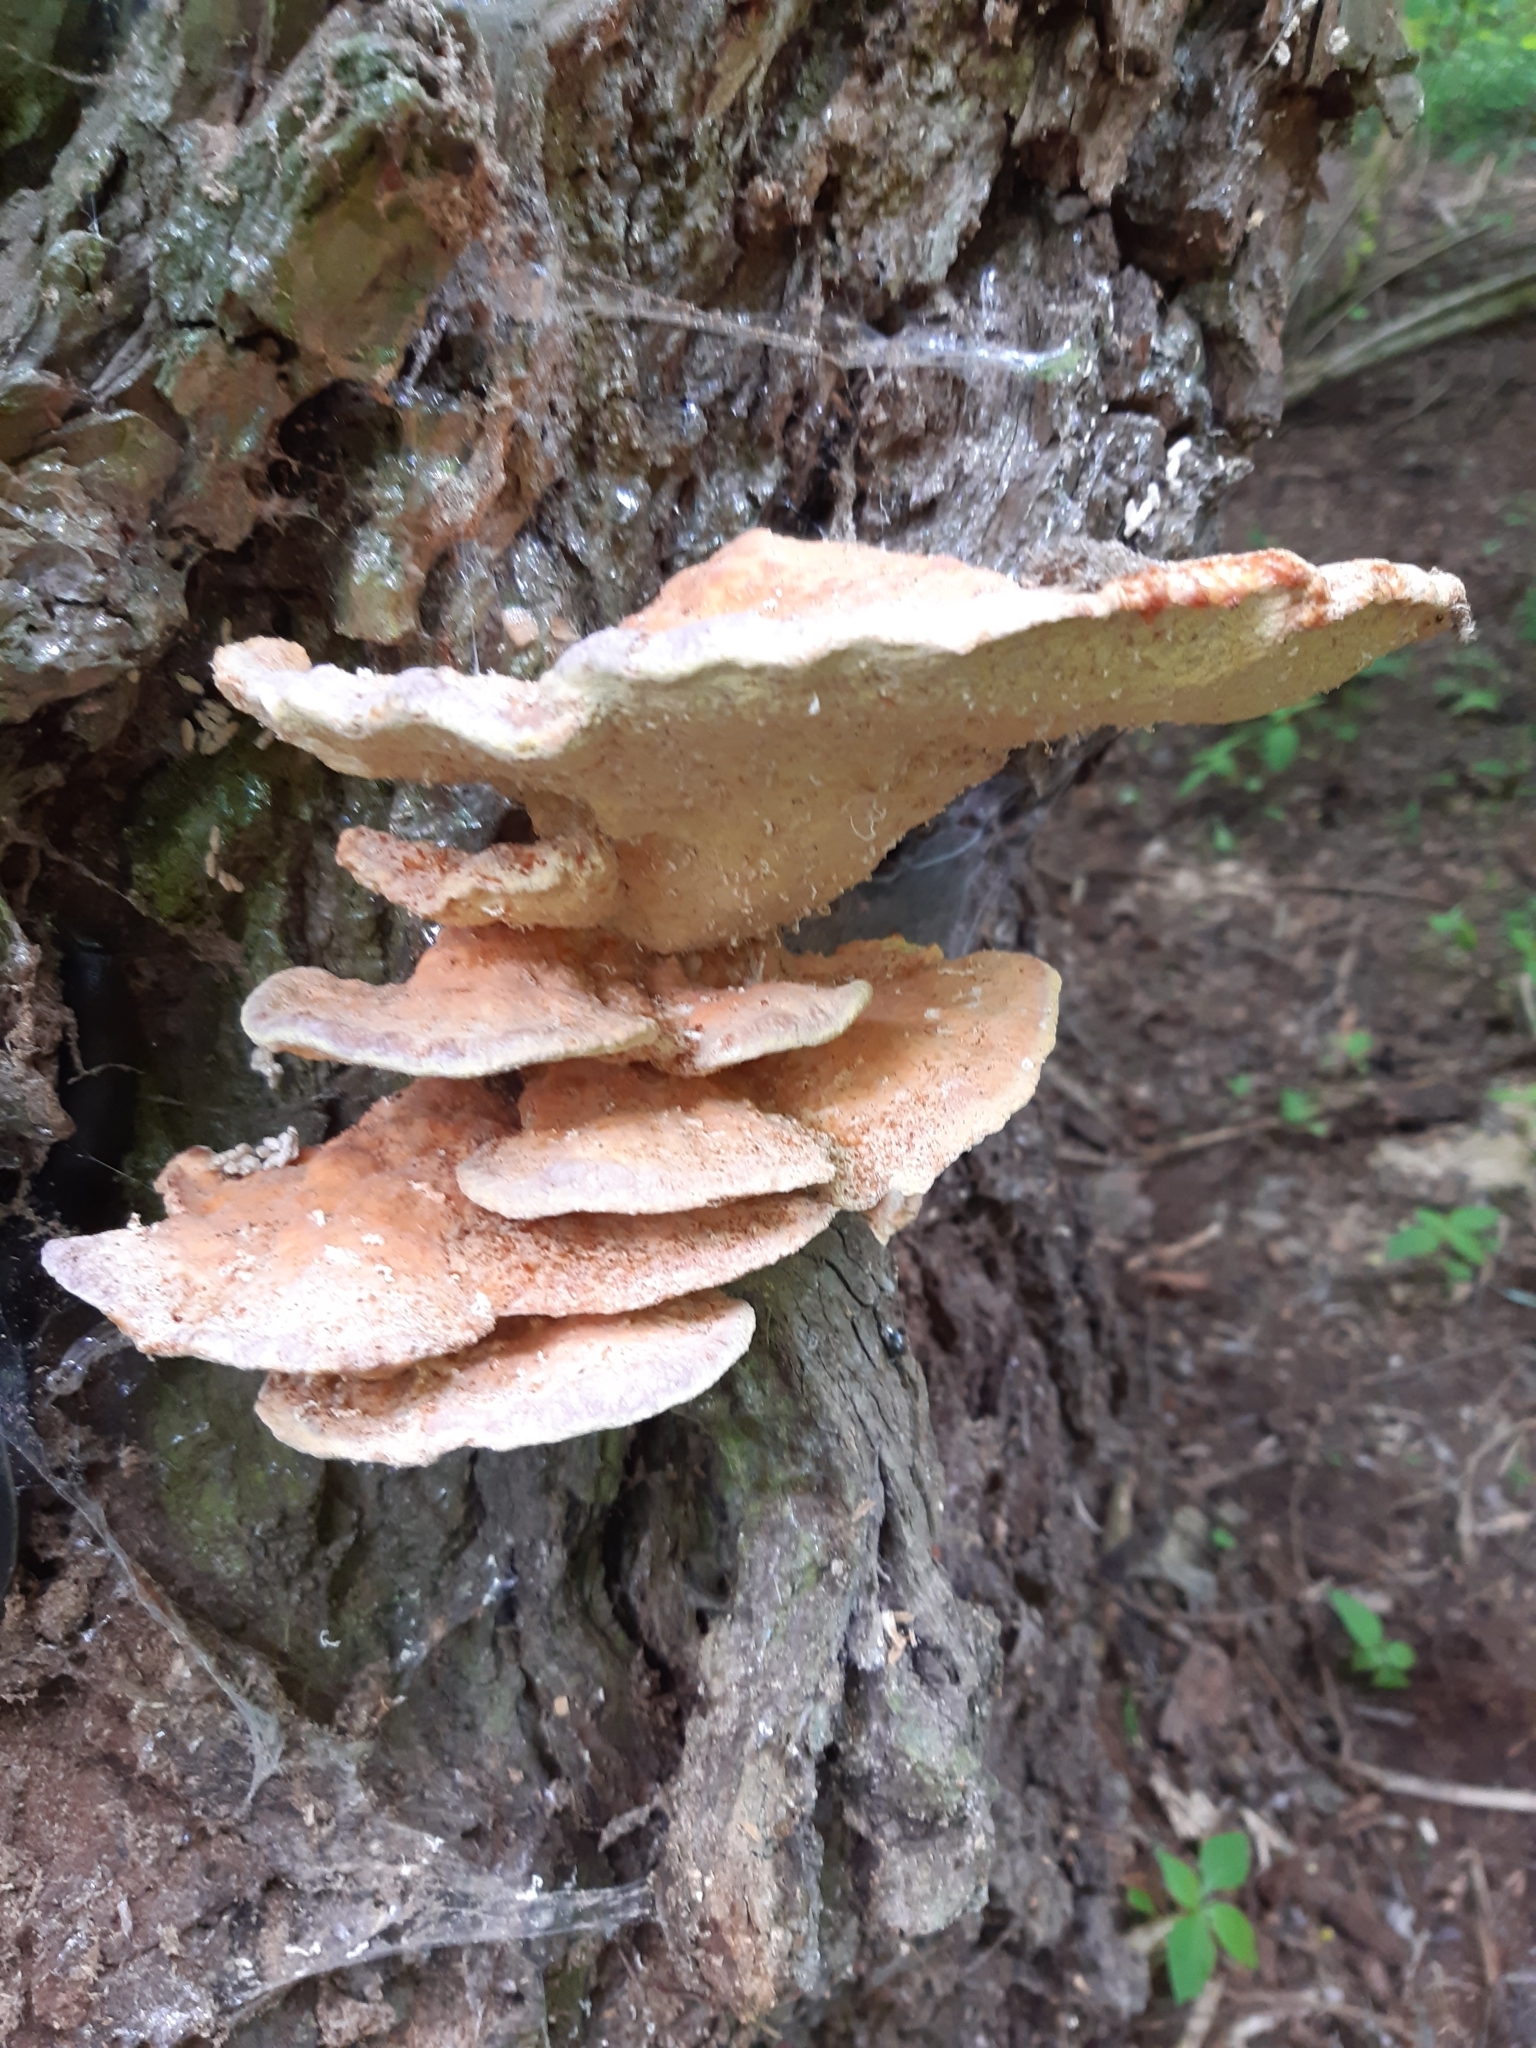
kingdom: Fungi
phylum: Basidiomycota
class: Agaricomycetes
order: Polyporales
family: Laetiporaceae
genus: Laetiporus
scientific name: Laetiporus sulphureus
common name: Chicken of the woods
